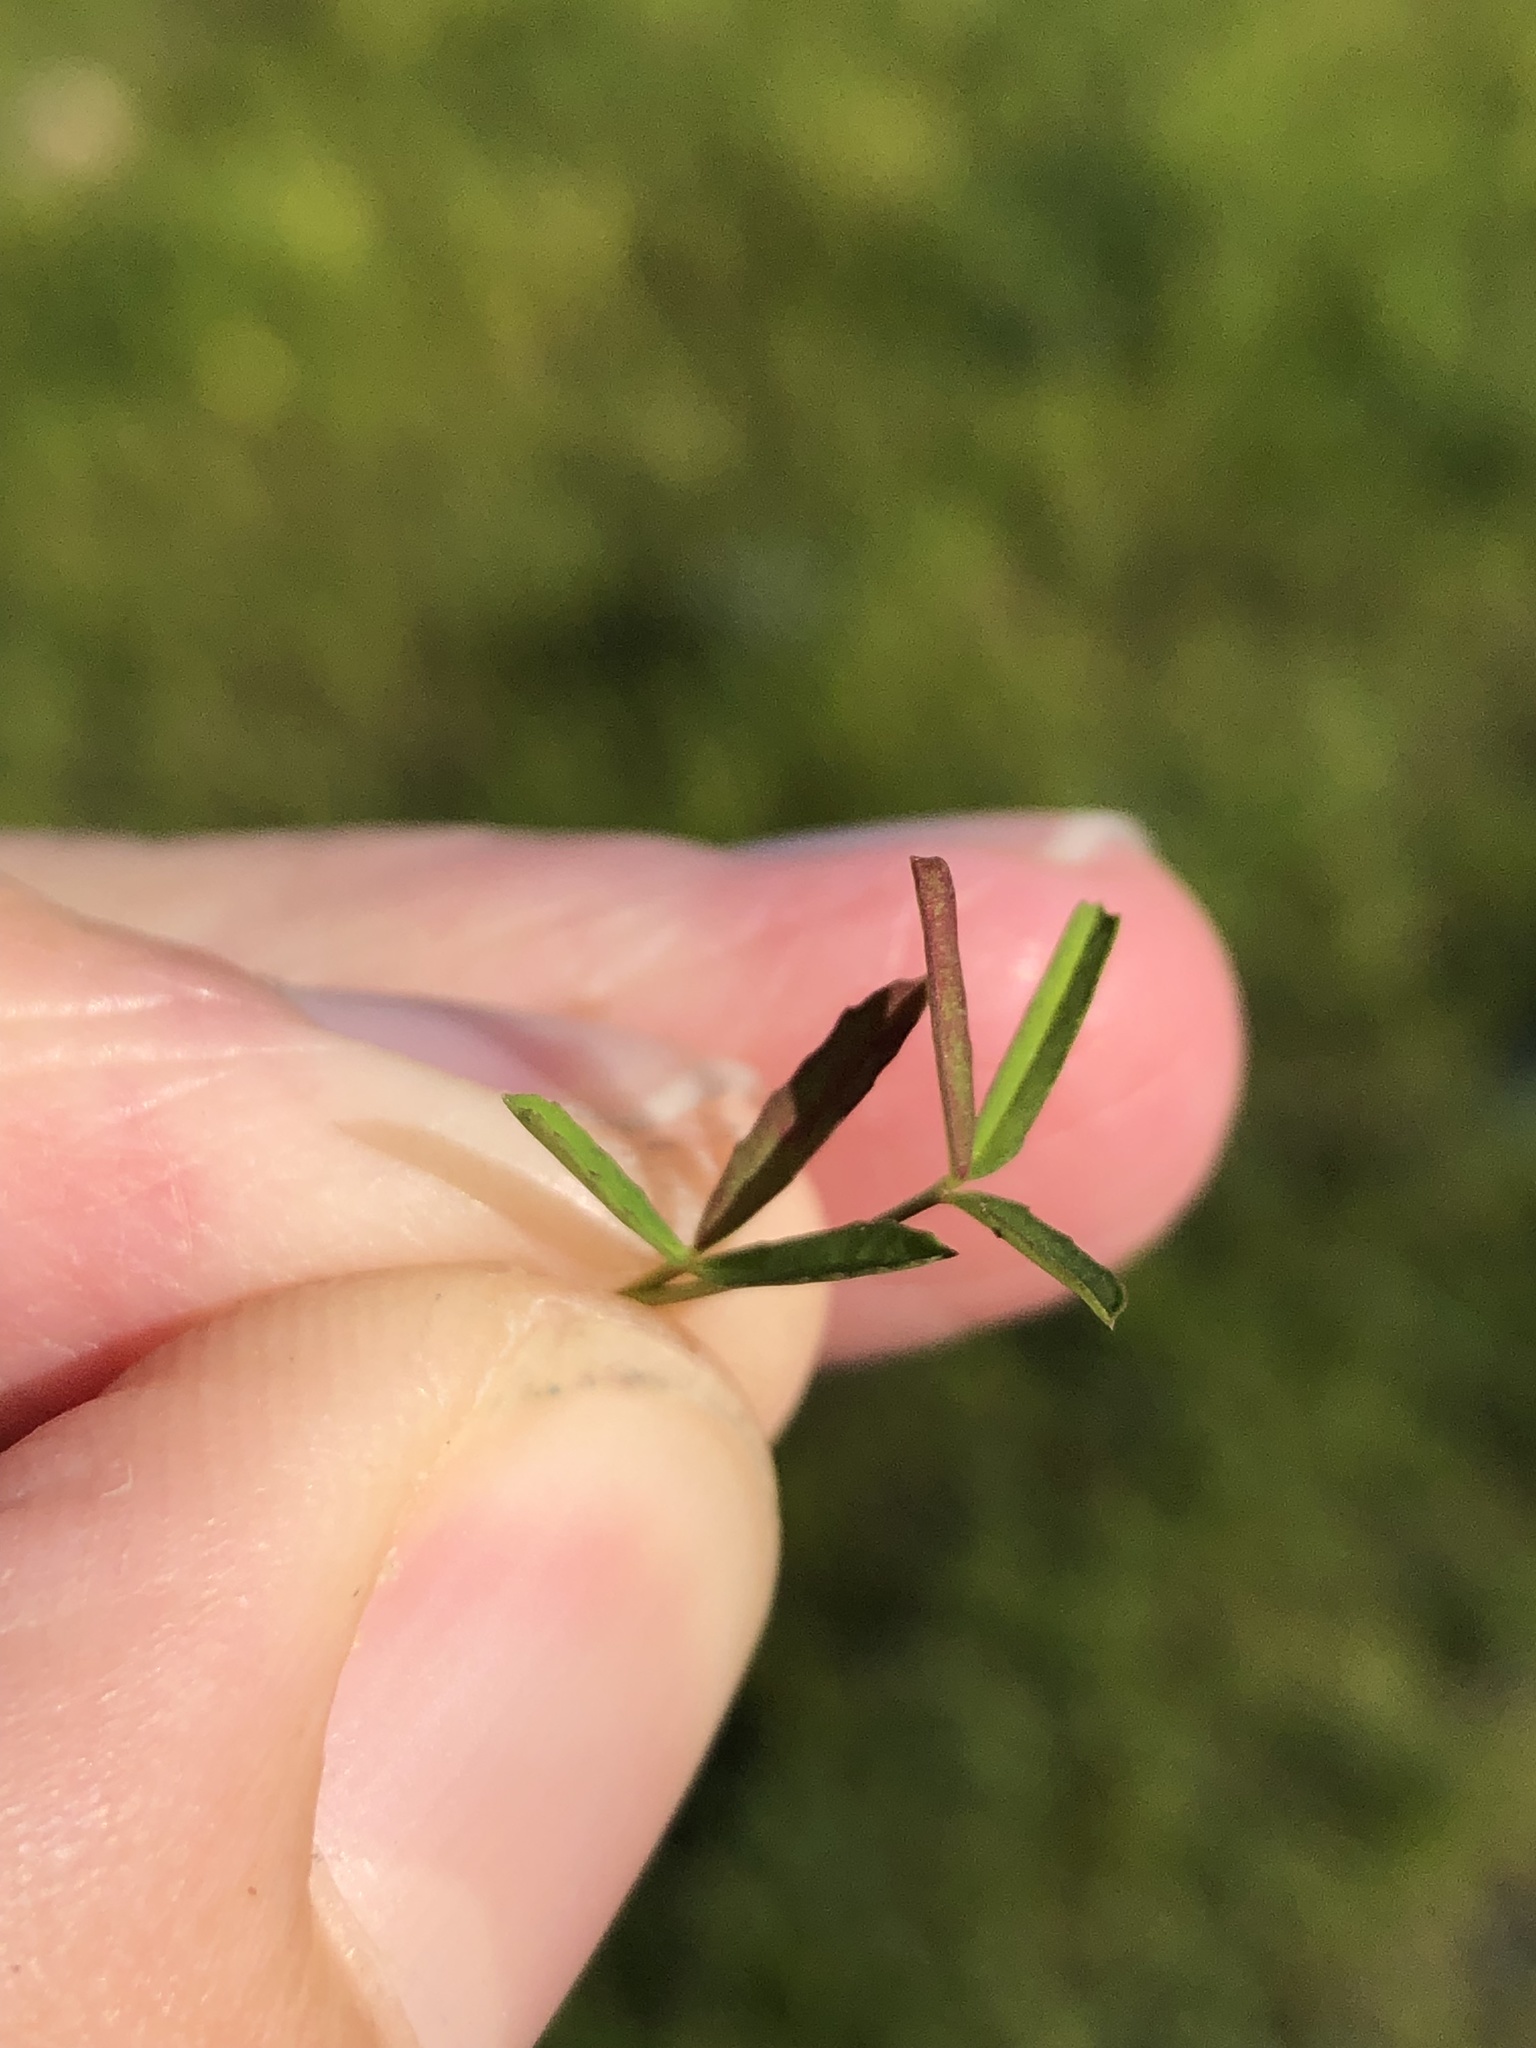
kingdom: Plantae
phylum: Tracheophyta
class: Magnoliopsida
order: Fabales
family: Fabaceae
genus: Trifolium
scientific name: Trifolium depauperatum
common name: Poverty clover
